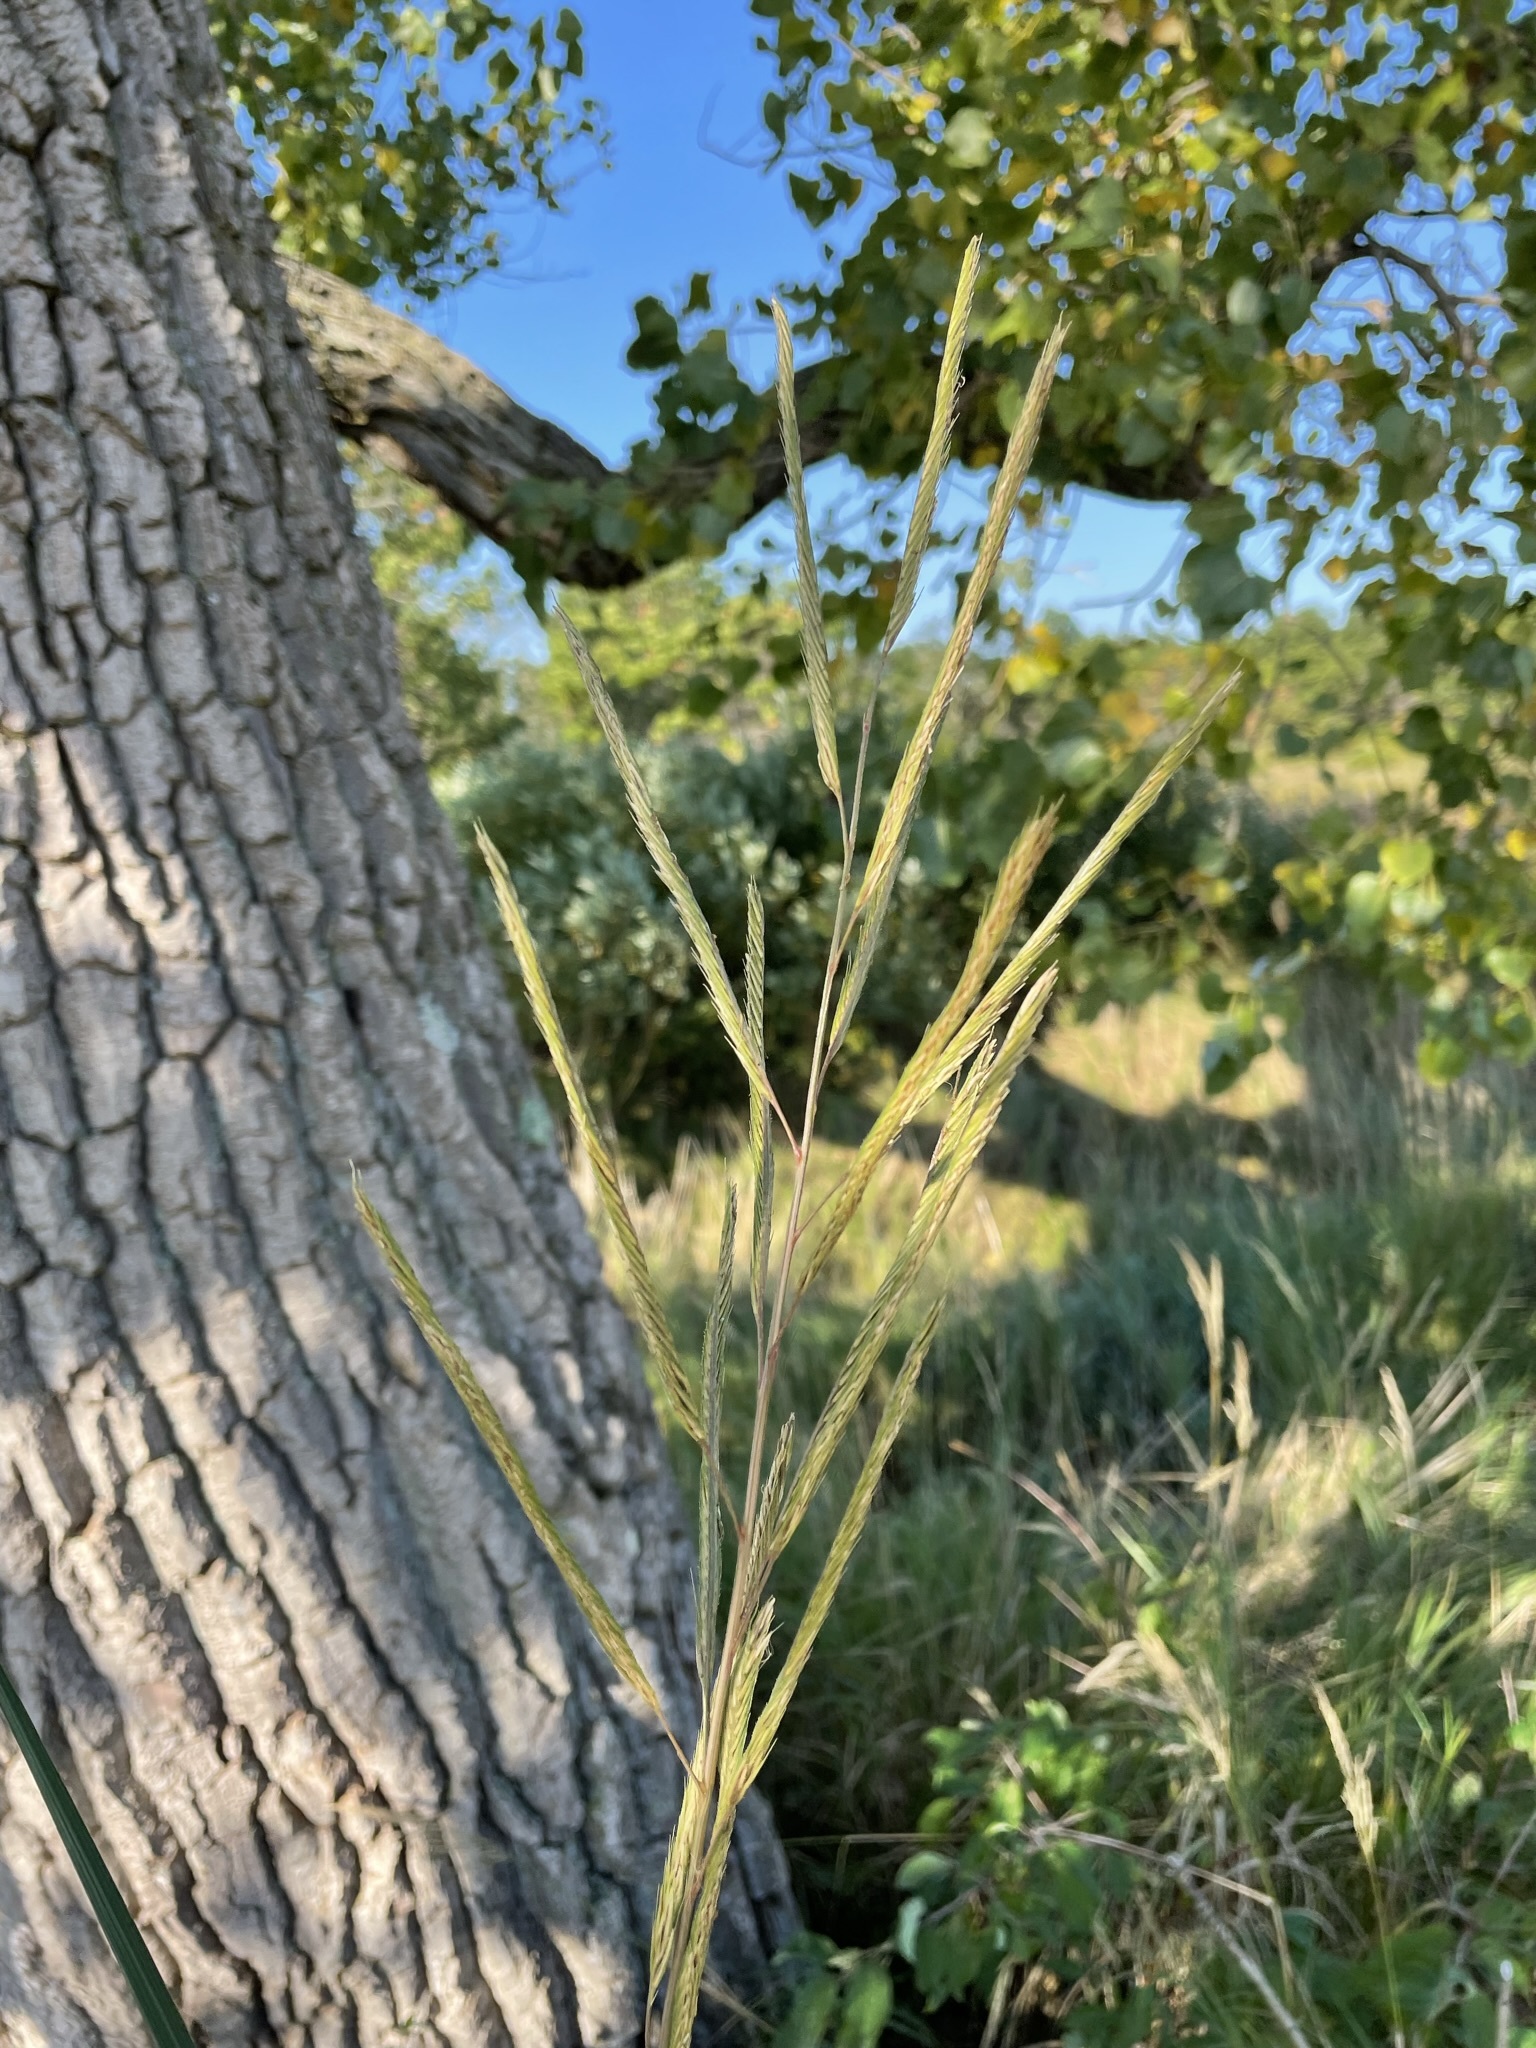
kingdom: Plantae
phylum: Tracheophyta
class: Liliopsida
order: Poales
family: Poaceae
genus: Sporobolus
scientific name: Sporobolus michauxianus
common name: Freshwater cordgrass
